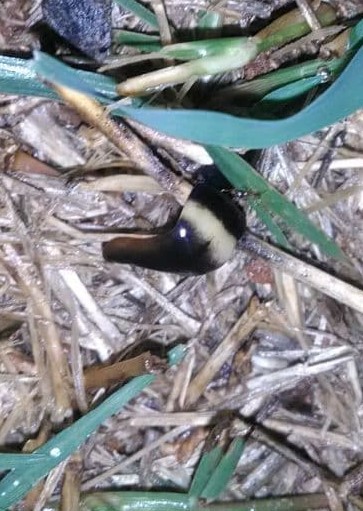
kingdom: Animalia
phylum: Platyhelminthes
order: Tricladida
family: Geoplanidae
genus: Paraba
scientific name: Paraba pankaru
